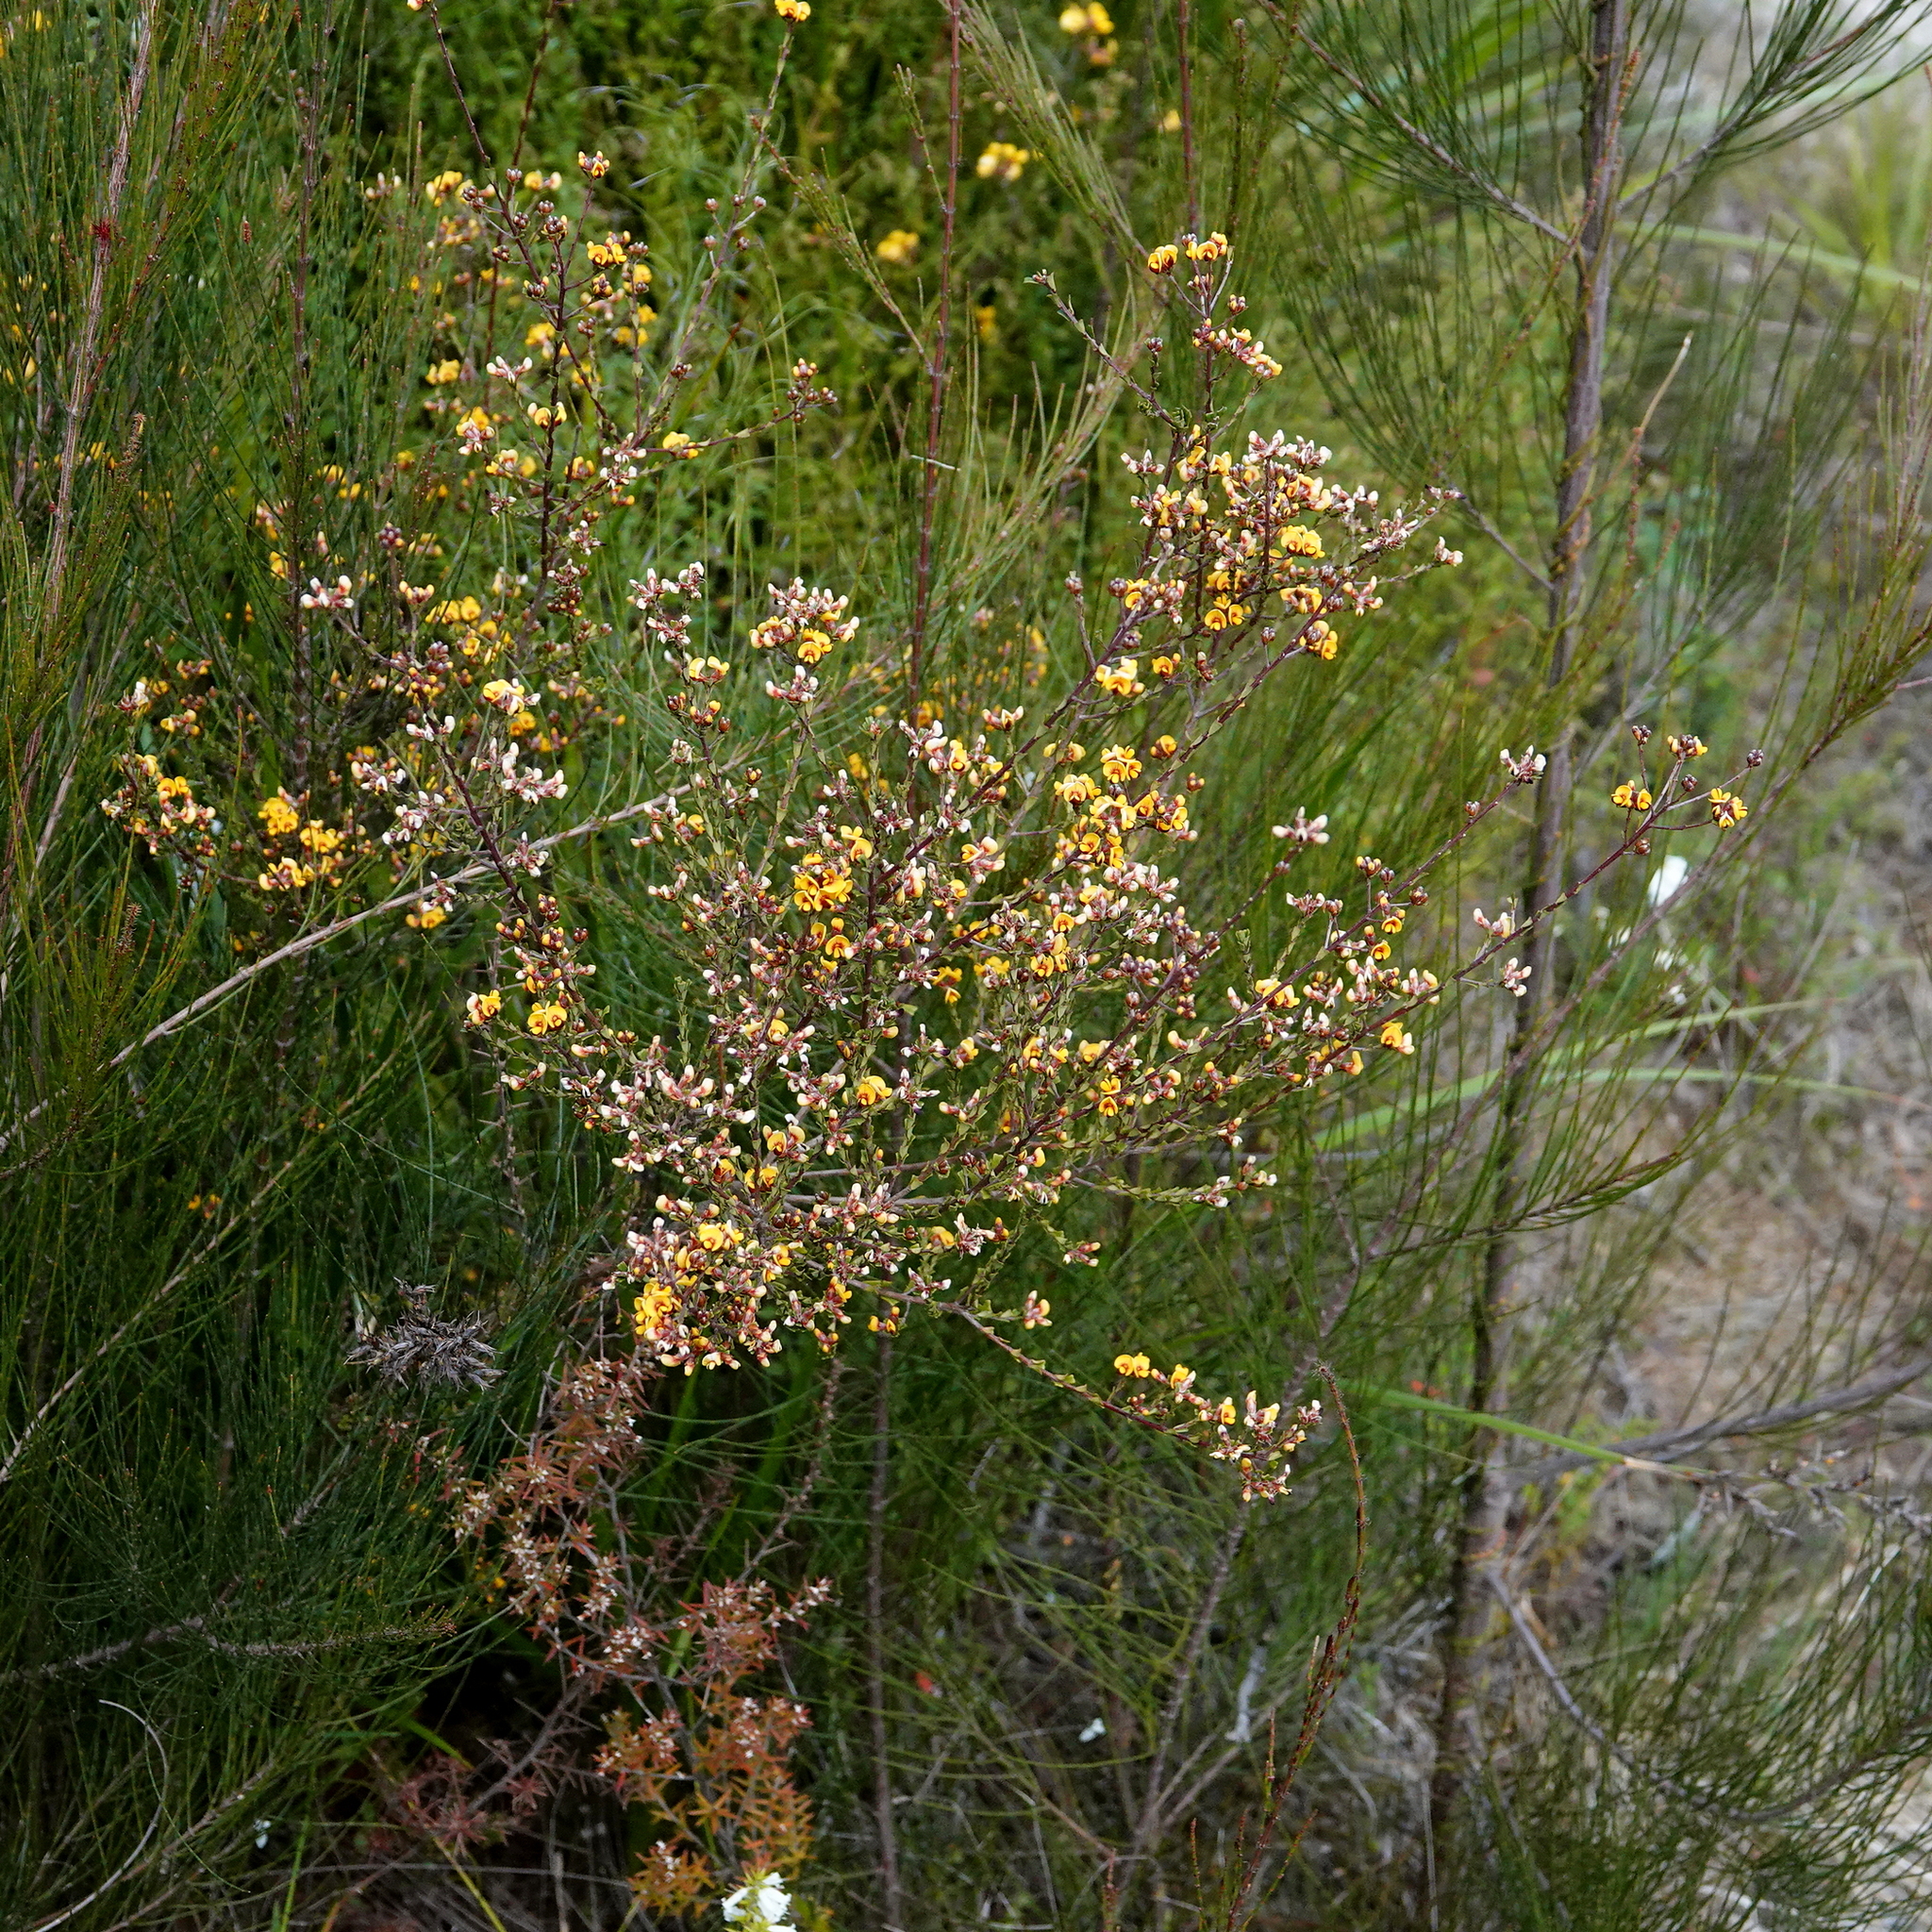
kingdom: Plantae
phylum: Tracheophyta
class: Magnoliopsida
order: Fabales
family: Fabaceae
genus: Pultenaea
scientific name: Pultenaea retusa
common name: Blunt bush-pea
